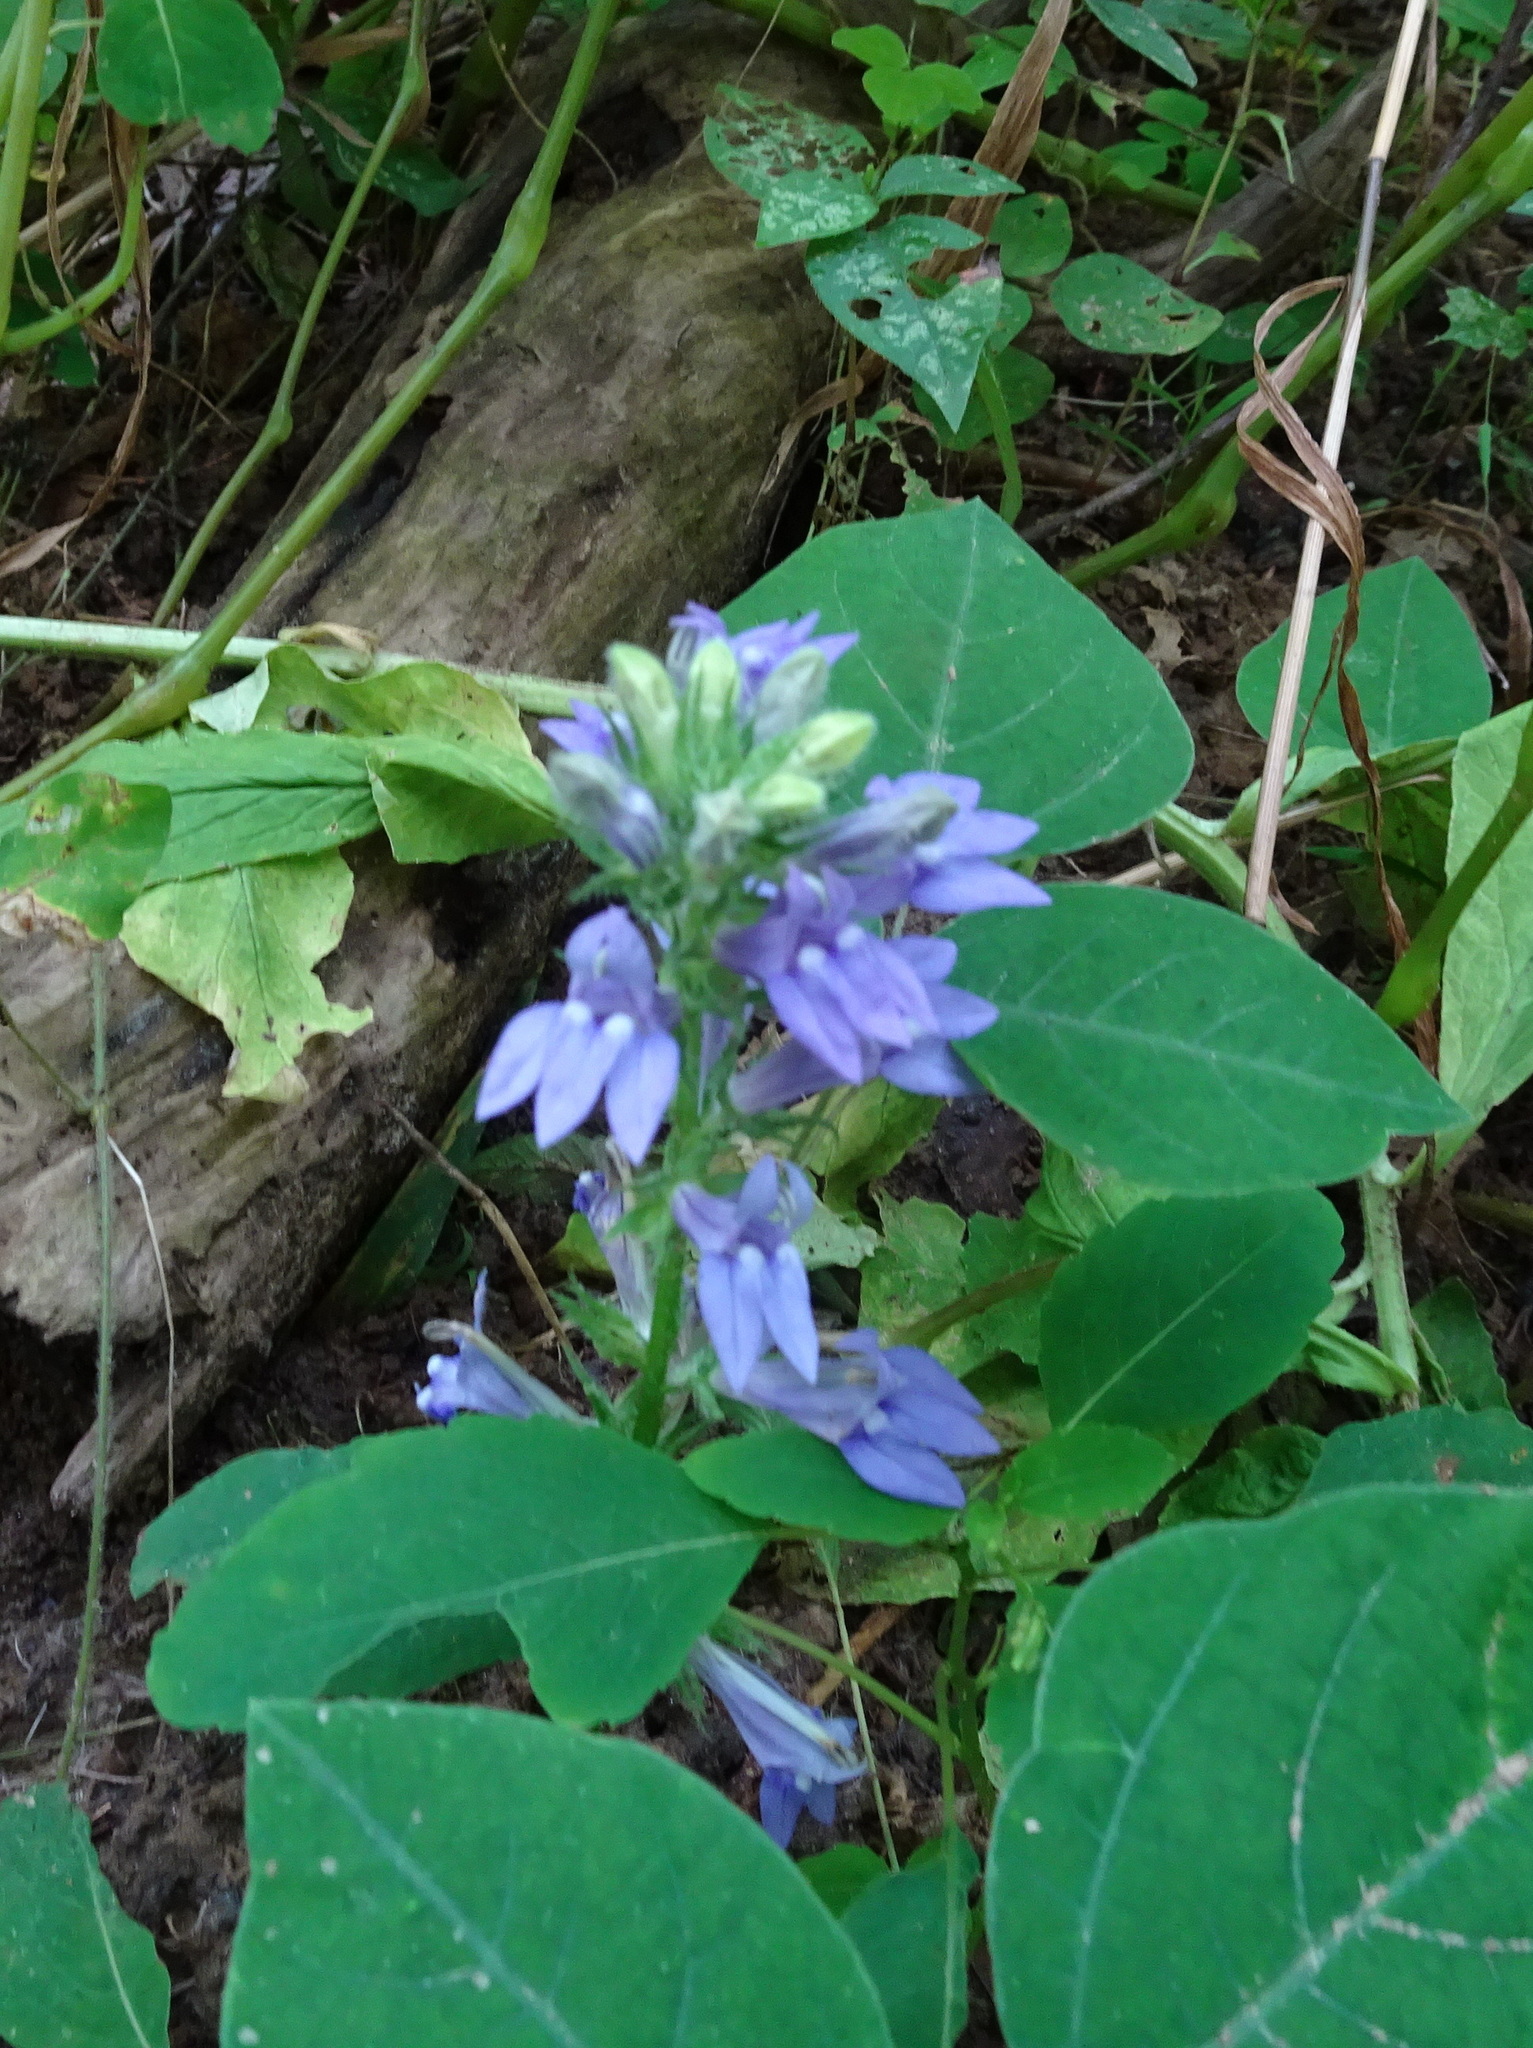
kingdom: Plantae
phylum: Tracheophyta
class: Magnoliopsida
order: Asterales
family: Campanulaceae
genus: Lobelia
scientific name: Lobelia siphilitica
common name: Great lobelia
